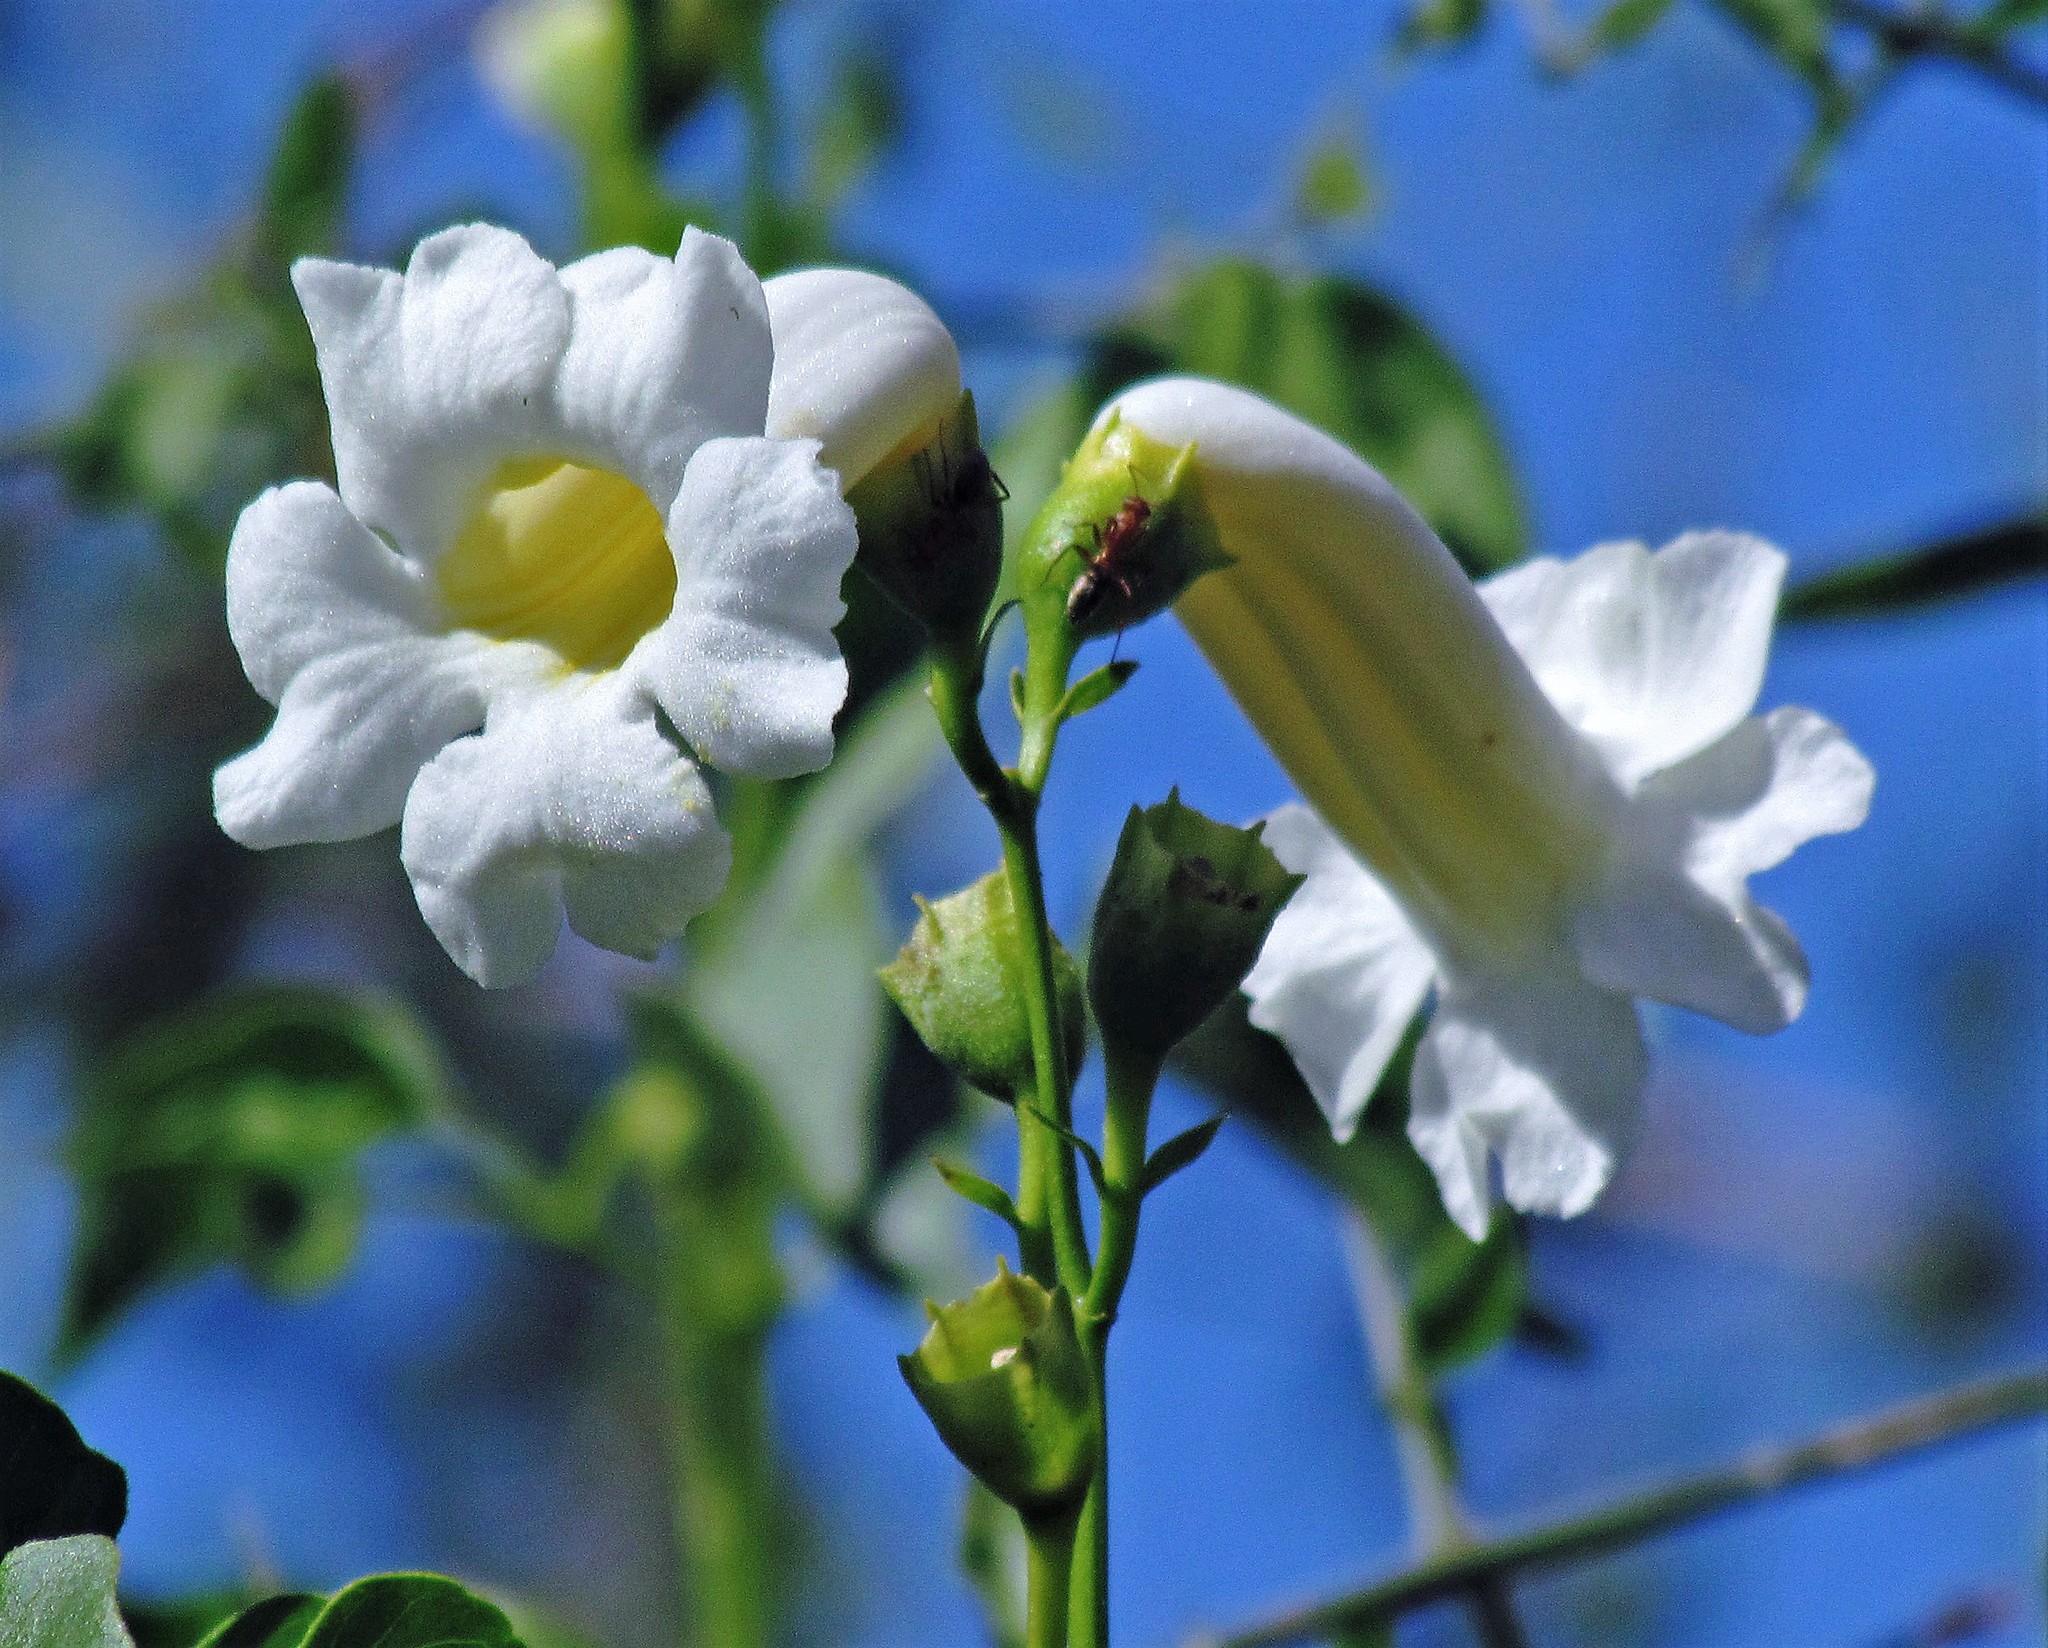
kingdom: Plantae
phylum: Tracheophyta
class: Magnoliopsida
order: Lamiales
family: Bignoniaceae
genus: Amphilophium
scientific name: Amphilophium carolinae
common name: Monkey's-comb
